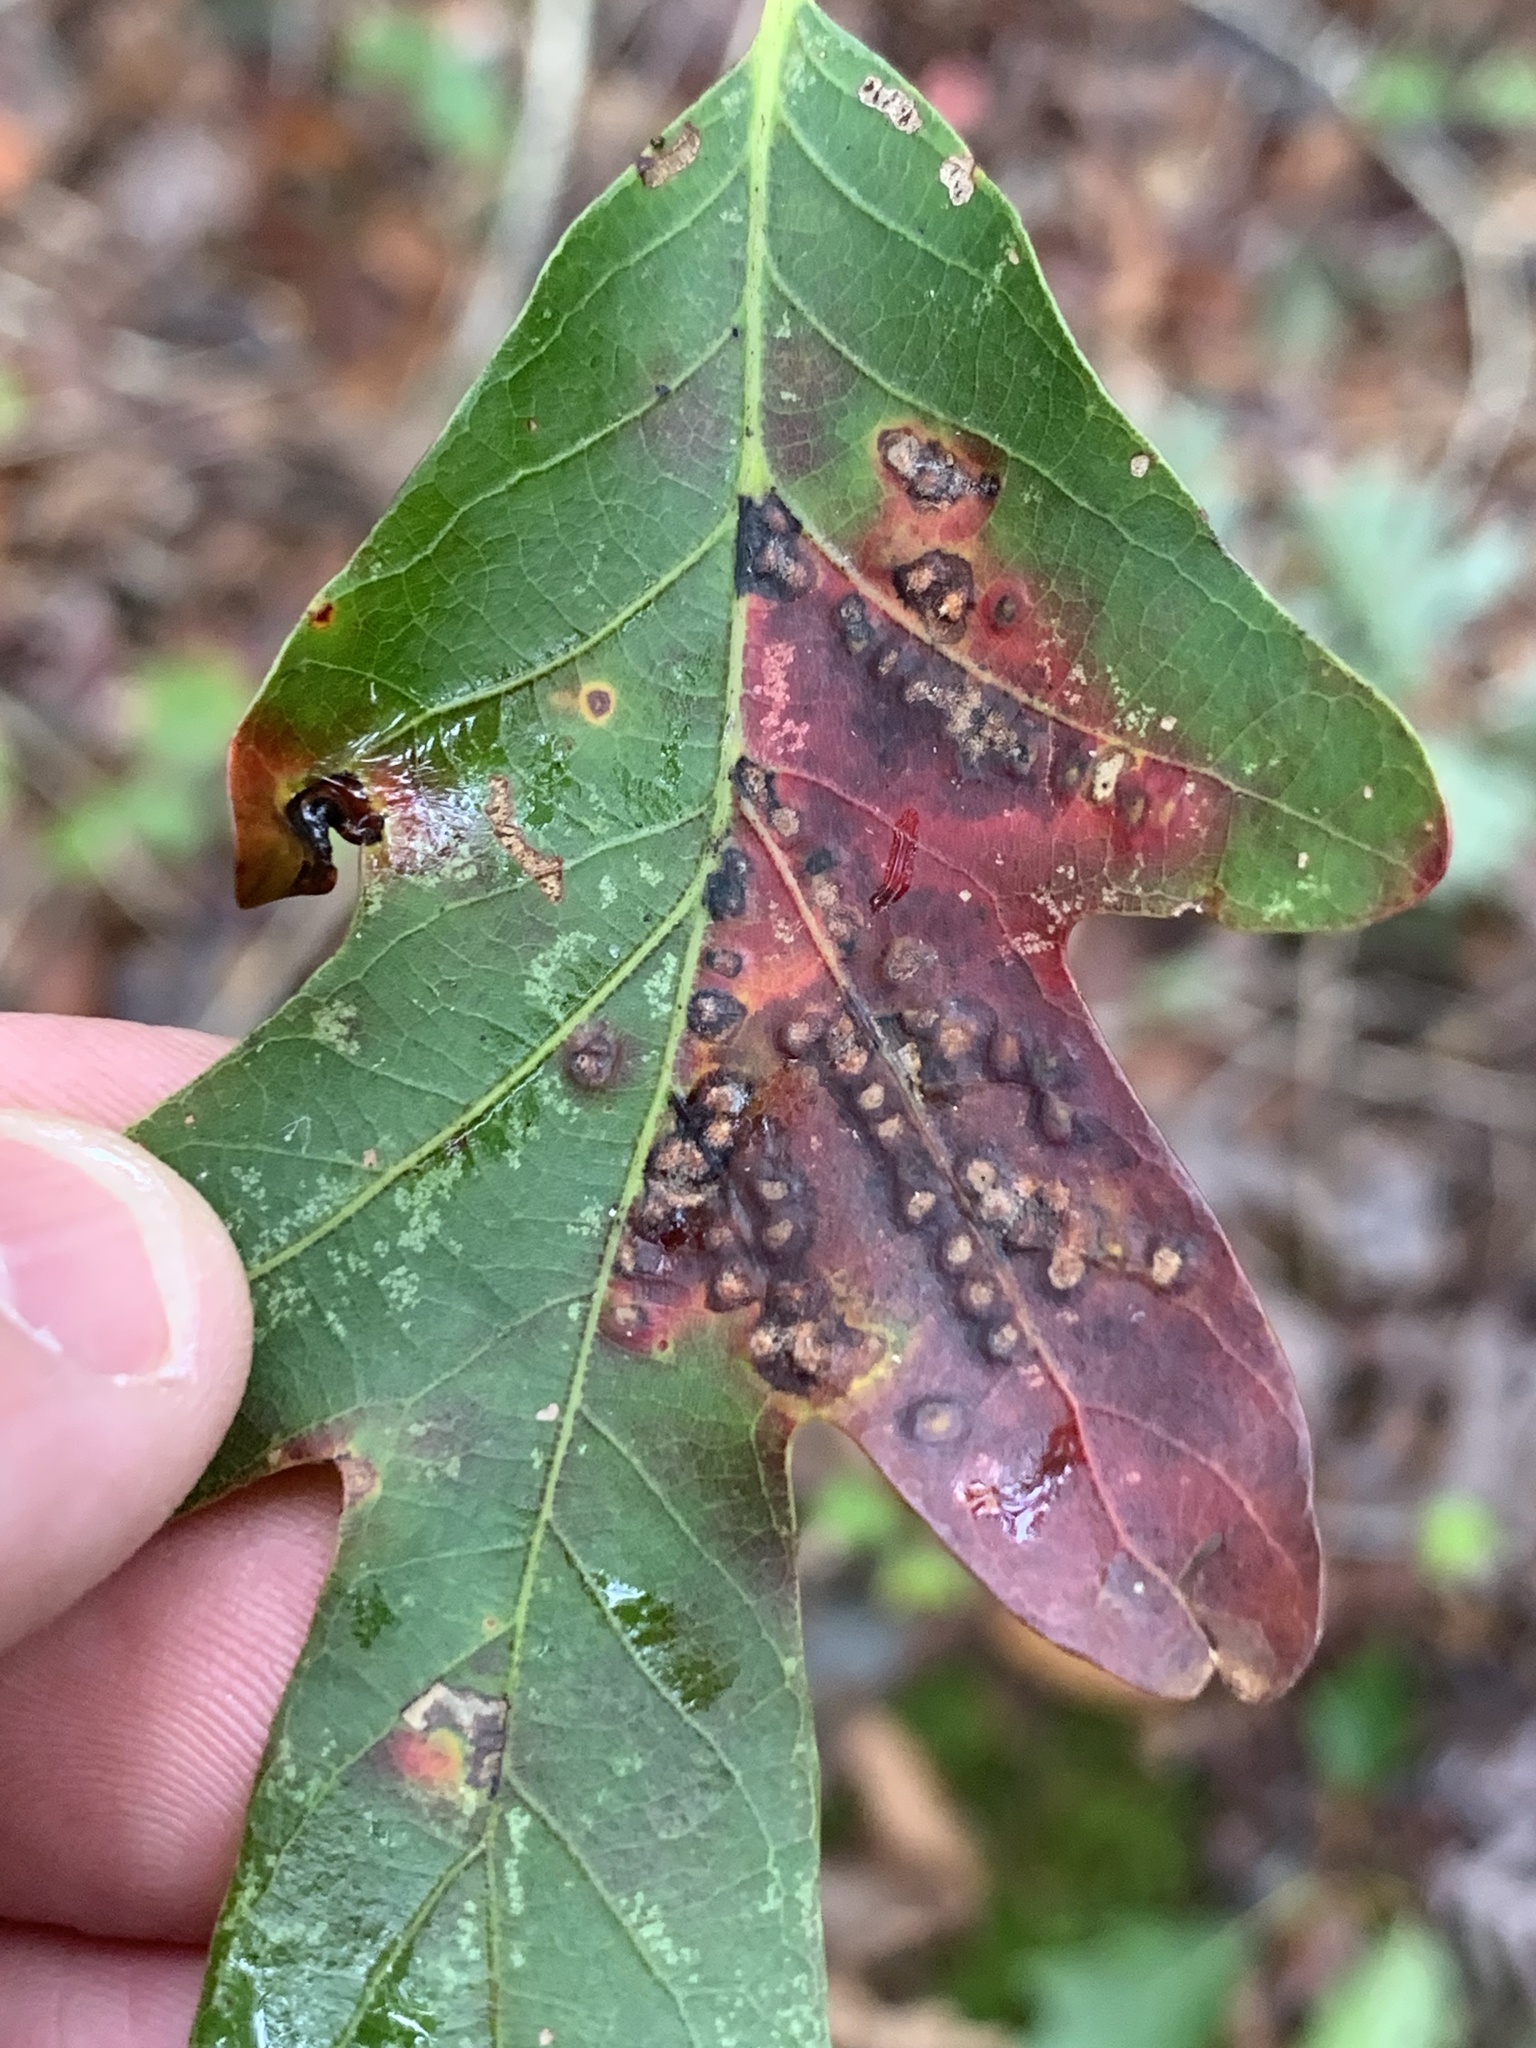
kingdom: Animalia
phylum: Arthropoda
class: Insecta
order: Hymenoptera
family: Cynipidae
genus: Neuroterus
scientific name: Neuroterus niger
